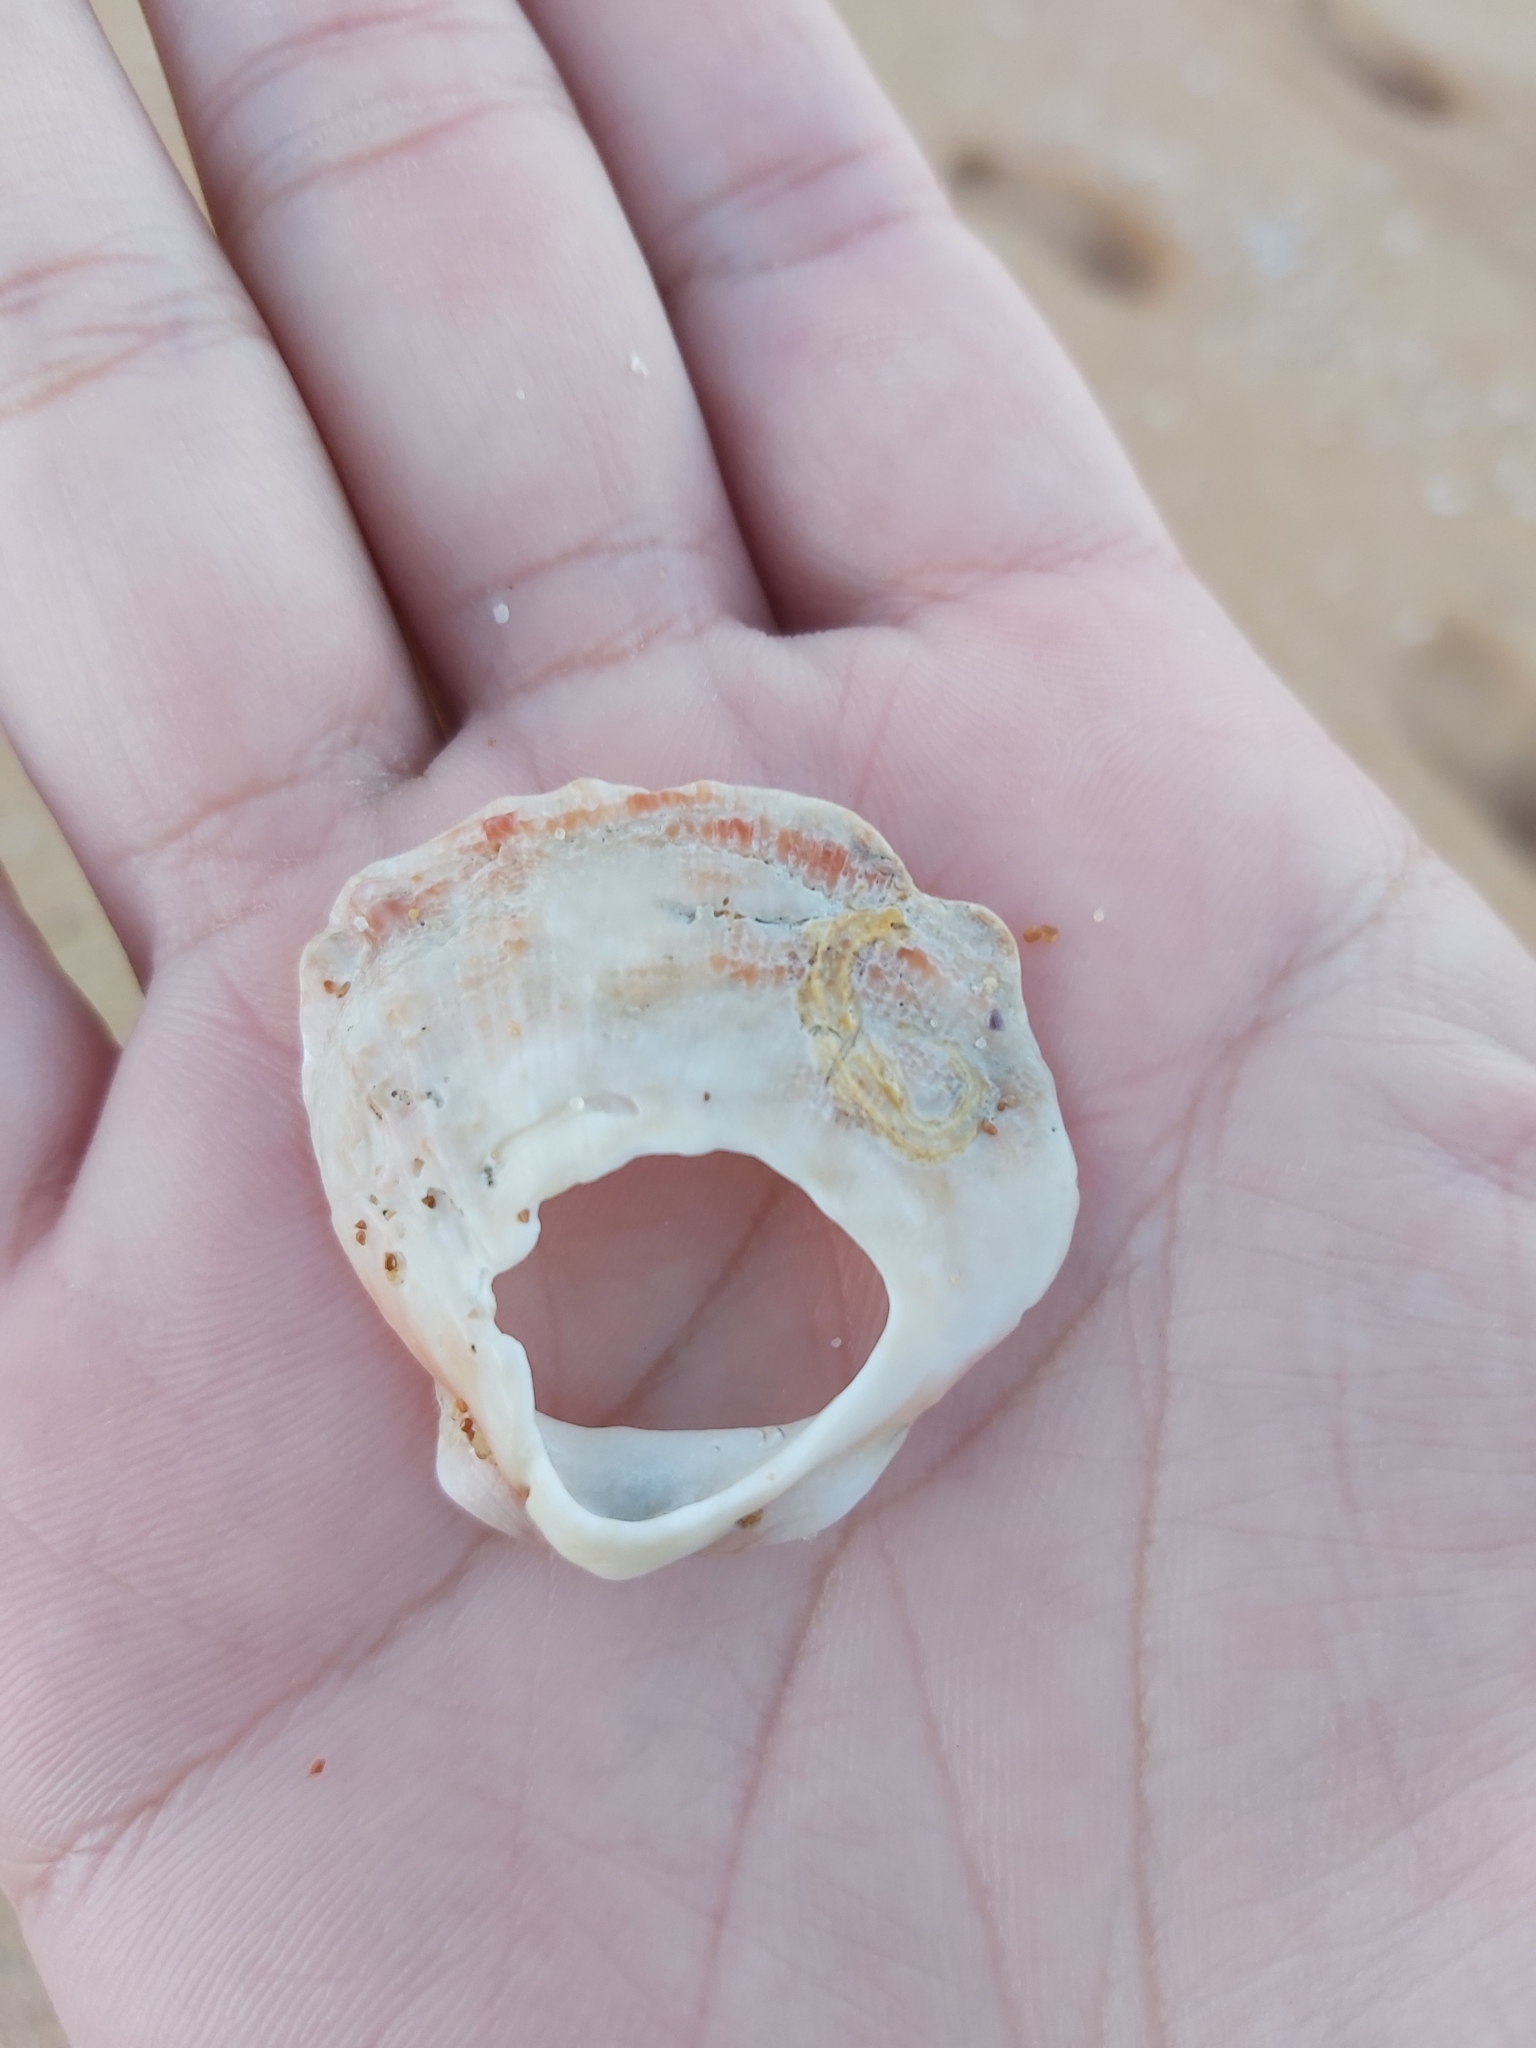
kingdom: Animalia
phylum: Mollusca
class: Bivalvia
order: Pectinida
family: Spondylidae
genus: Spondylus
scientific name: Spondylus tenellus
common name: Scarlet thorny oyster
